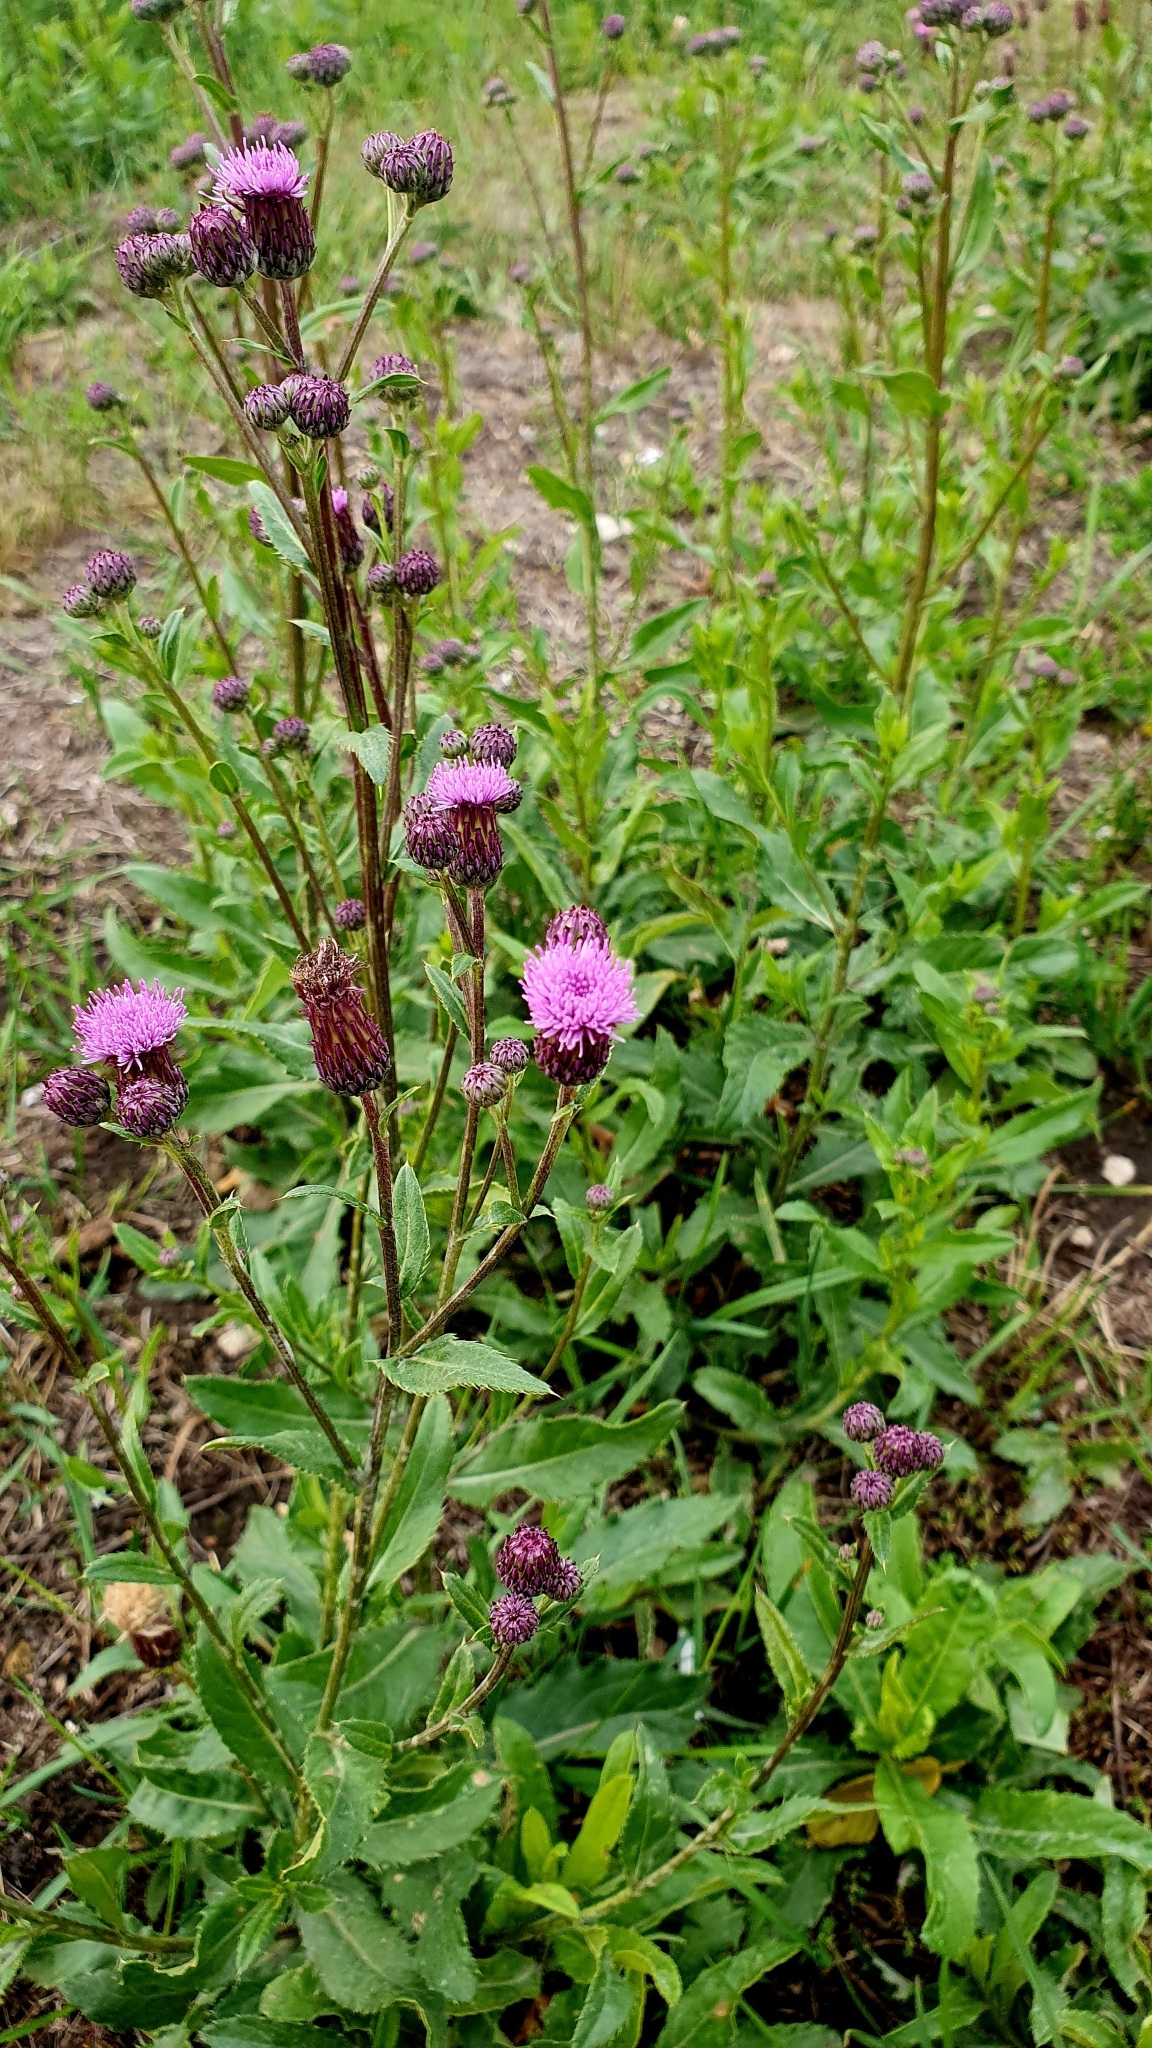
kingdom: Plantae
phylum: Tracheophyta
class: Magnoliopsida
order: Asterales
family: Asteraceae
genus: Cirsium
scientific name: Cirsium arvense
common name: Creeping thistle
